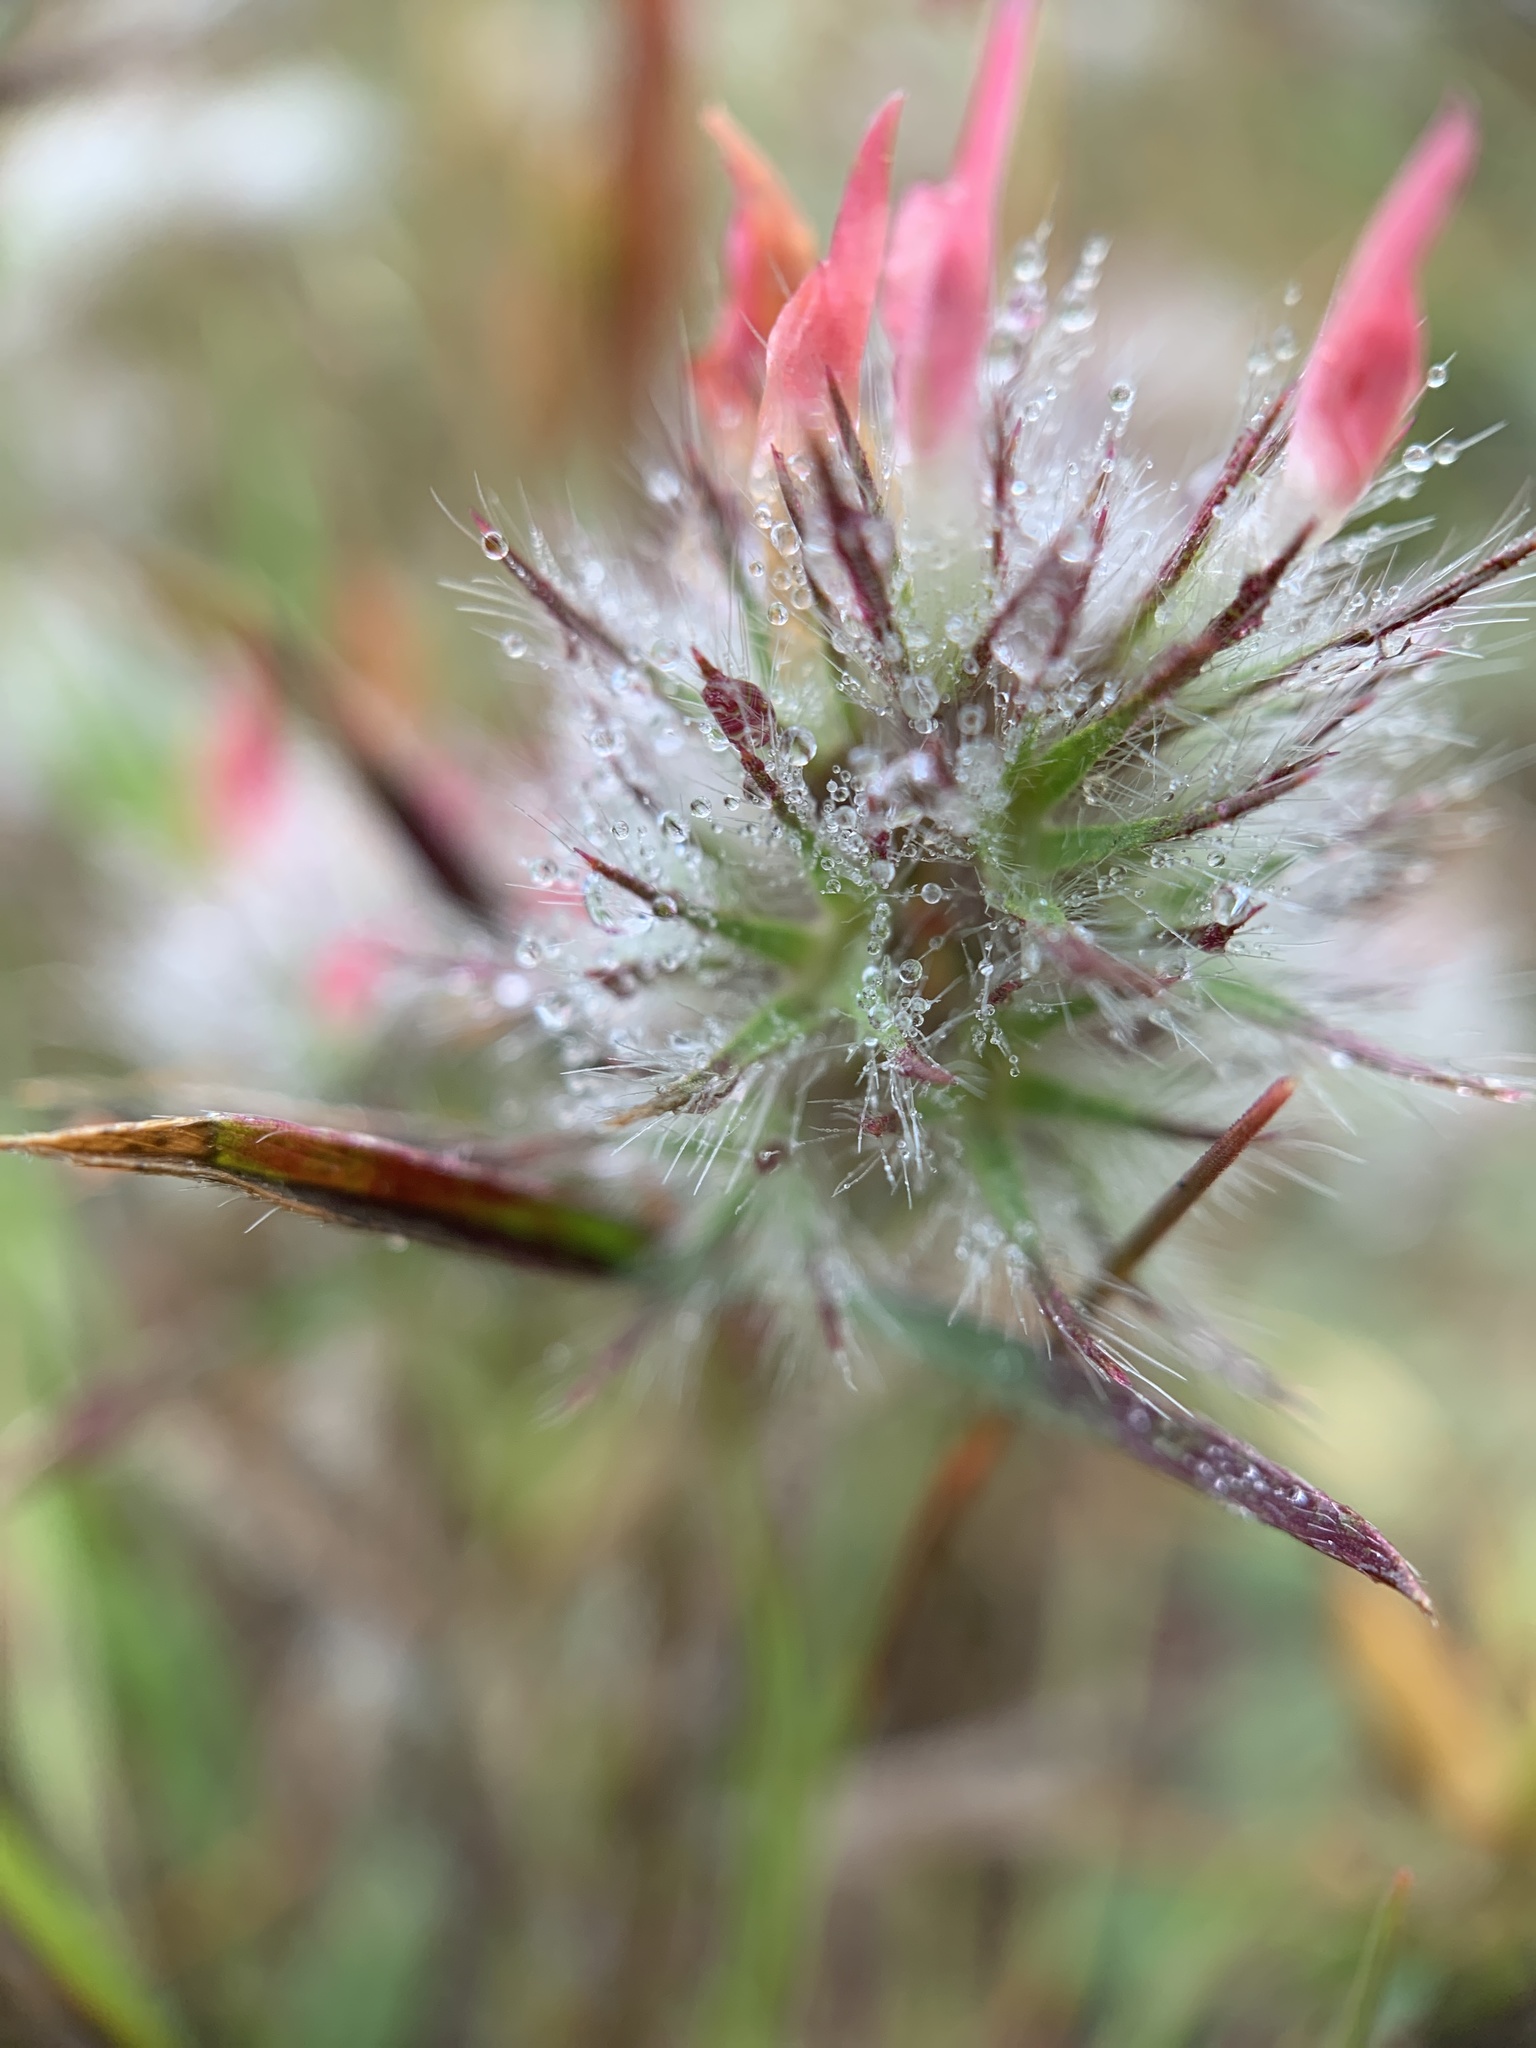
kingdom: Plantae
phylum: Tracheophyta
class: Magnoliopsida
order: Fabales
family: Fabaceae
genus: Trifolium
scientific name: Trifolium angustifolium
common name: Narrow clover
